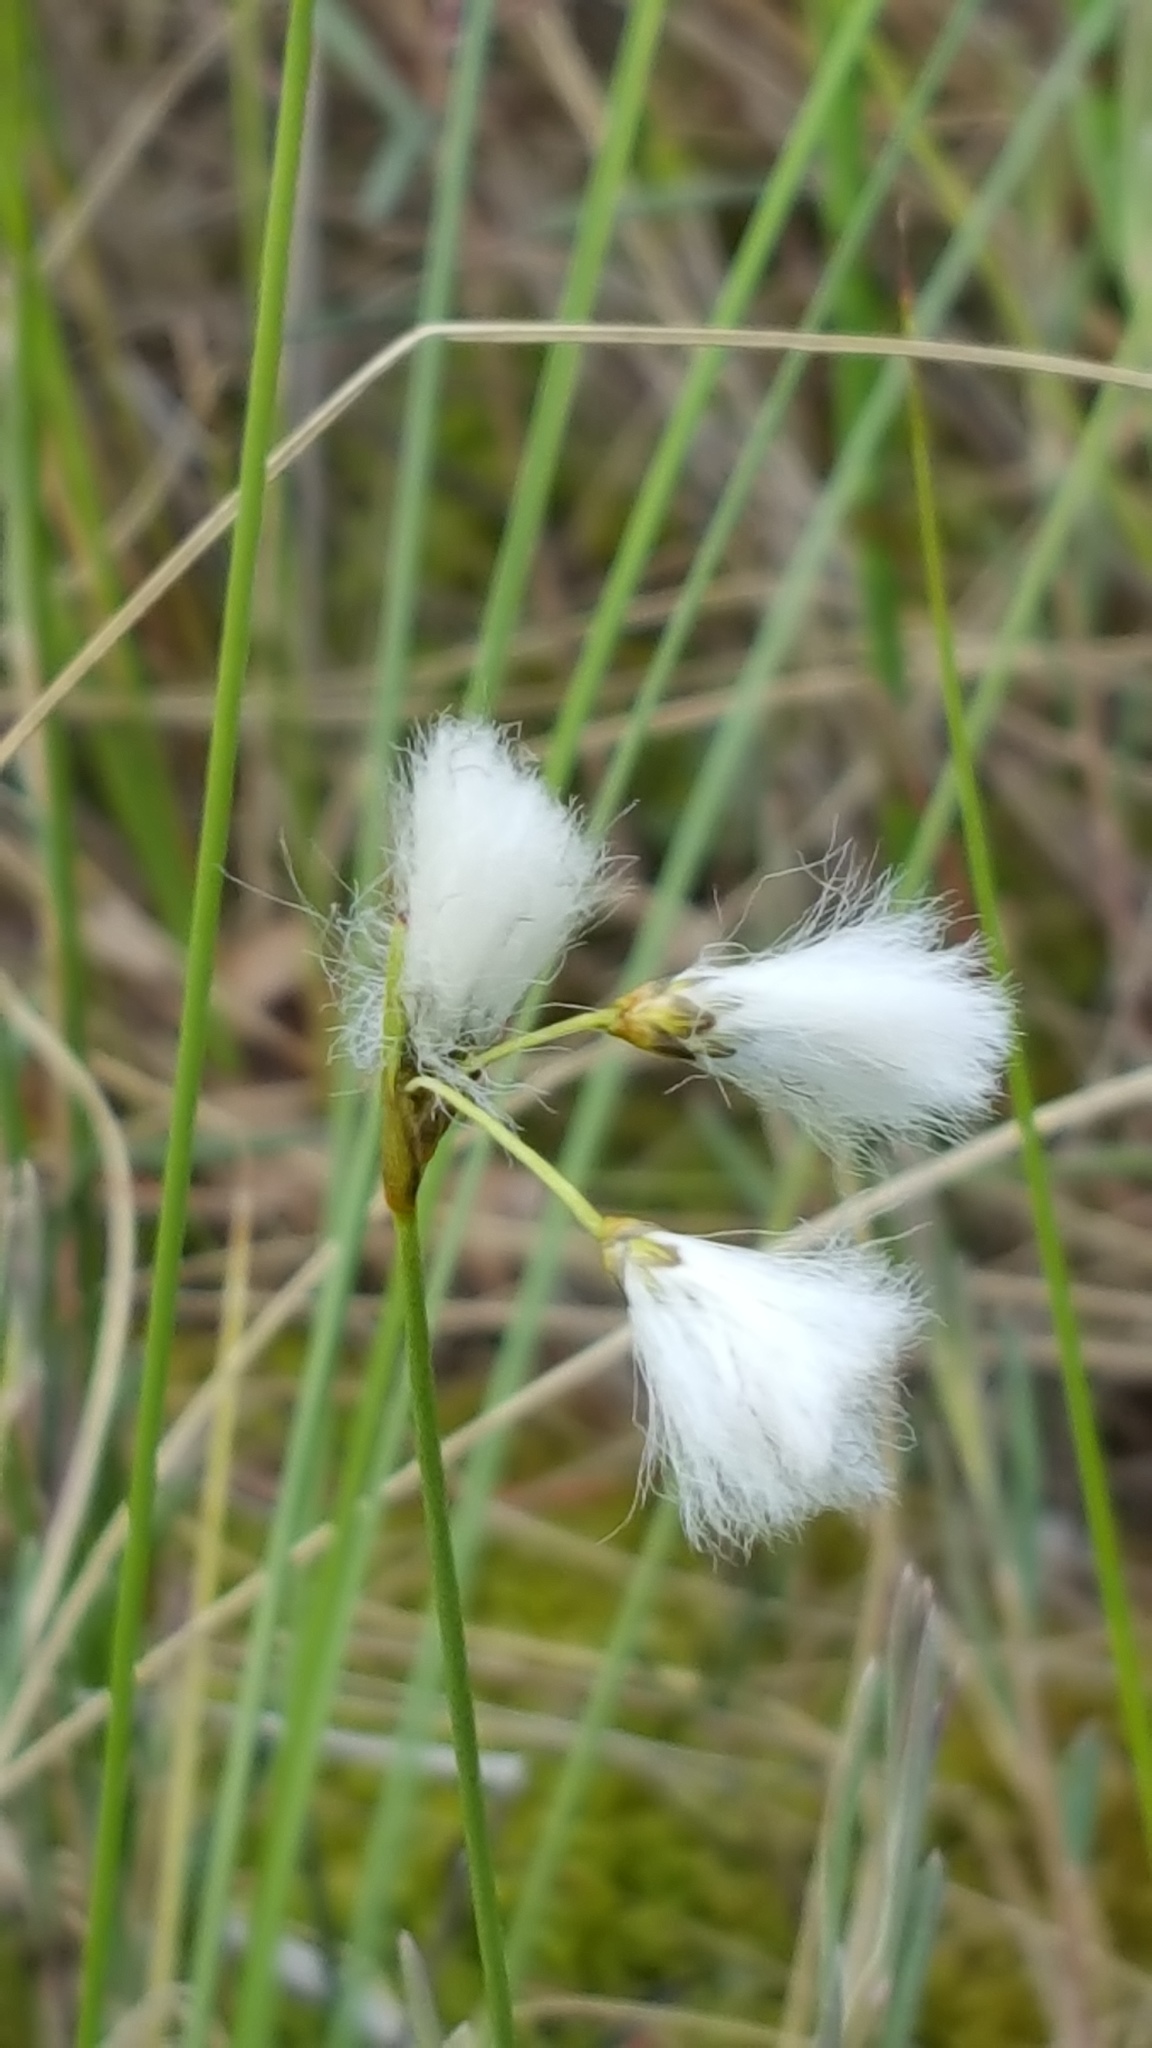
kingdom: Plantae
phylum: Tracheophyta
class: Liliopsida
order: Poales
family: Cyperaceae
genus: Eriophorum
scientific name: Eriophorum gracile
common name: Slender cottongrass
